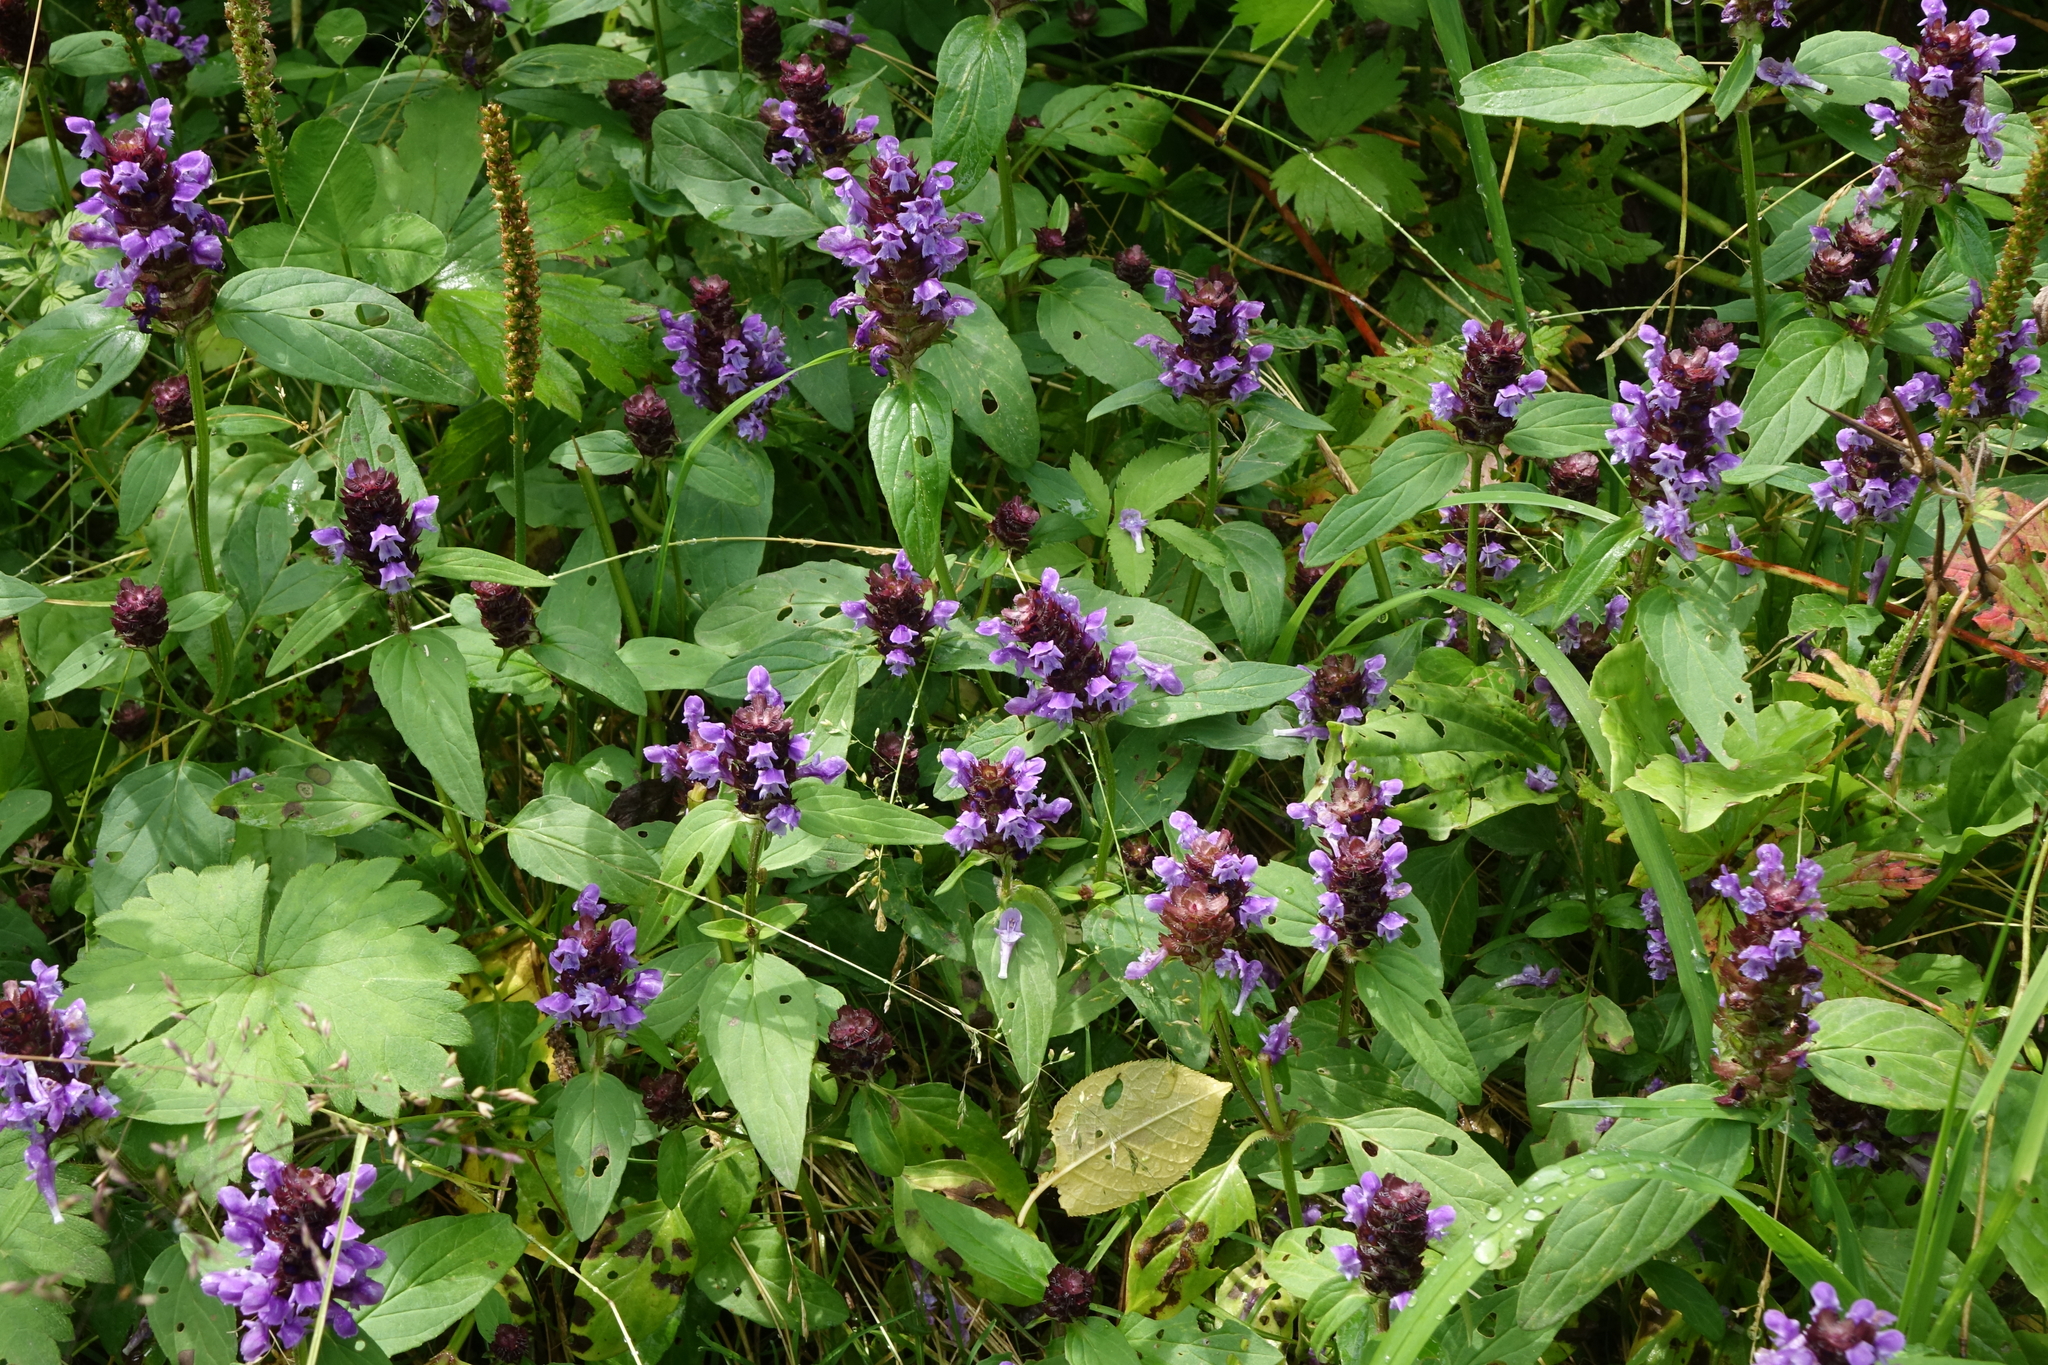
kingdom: Plantae
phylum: Tracheophyta
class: Magnoliopsida
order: Lamiales
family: Lamiaceae
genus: Prunella
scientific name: Prunella vulgaris
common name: Heal-all
